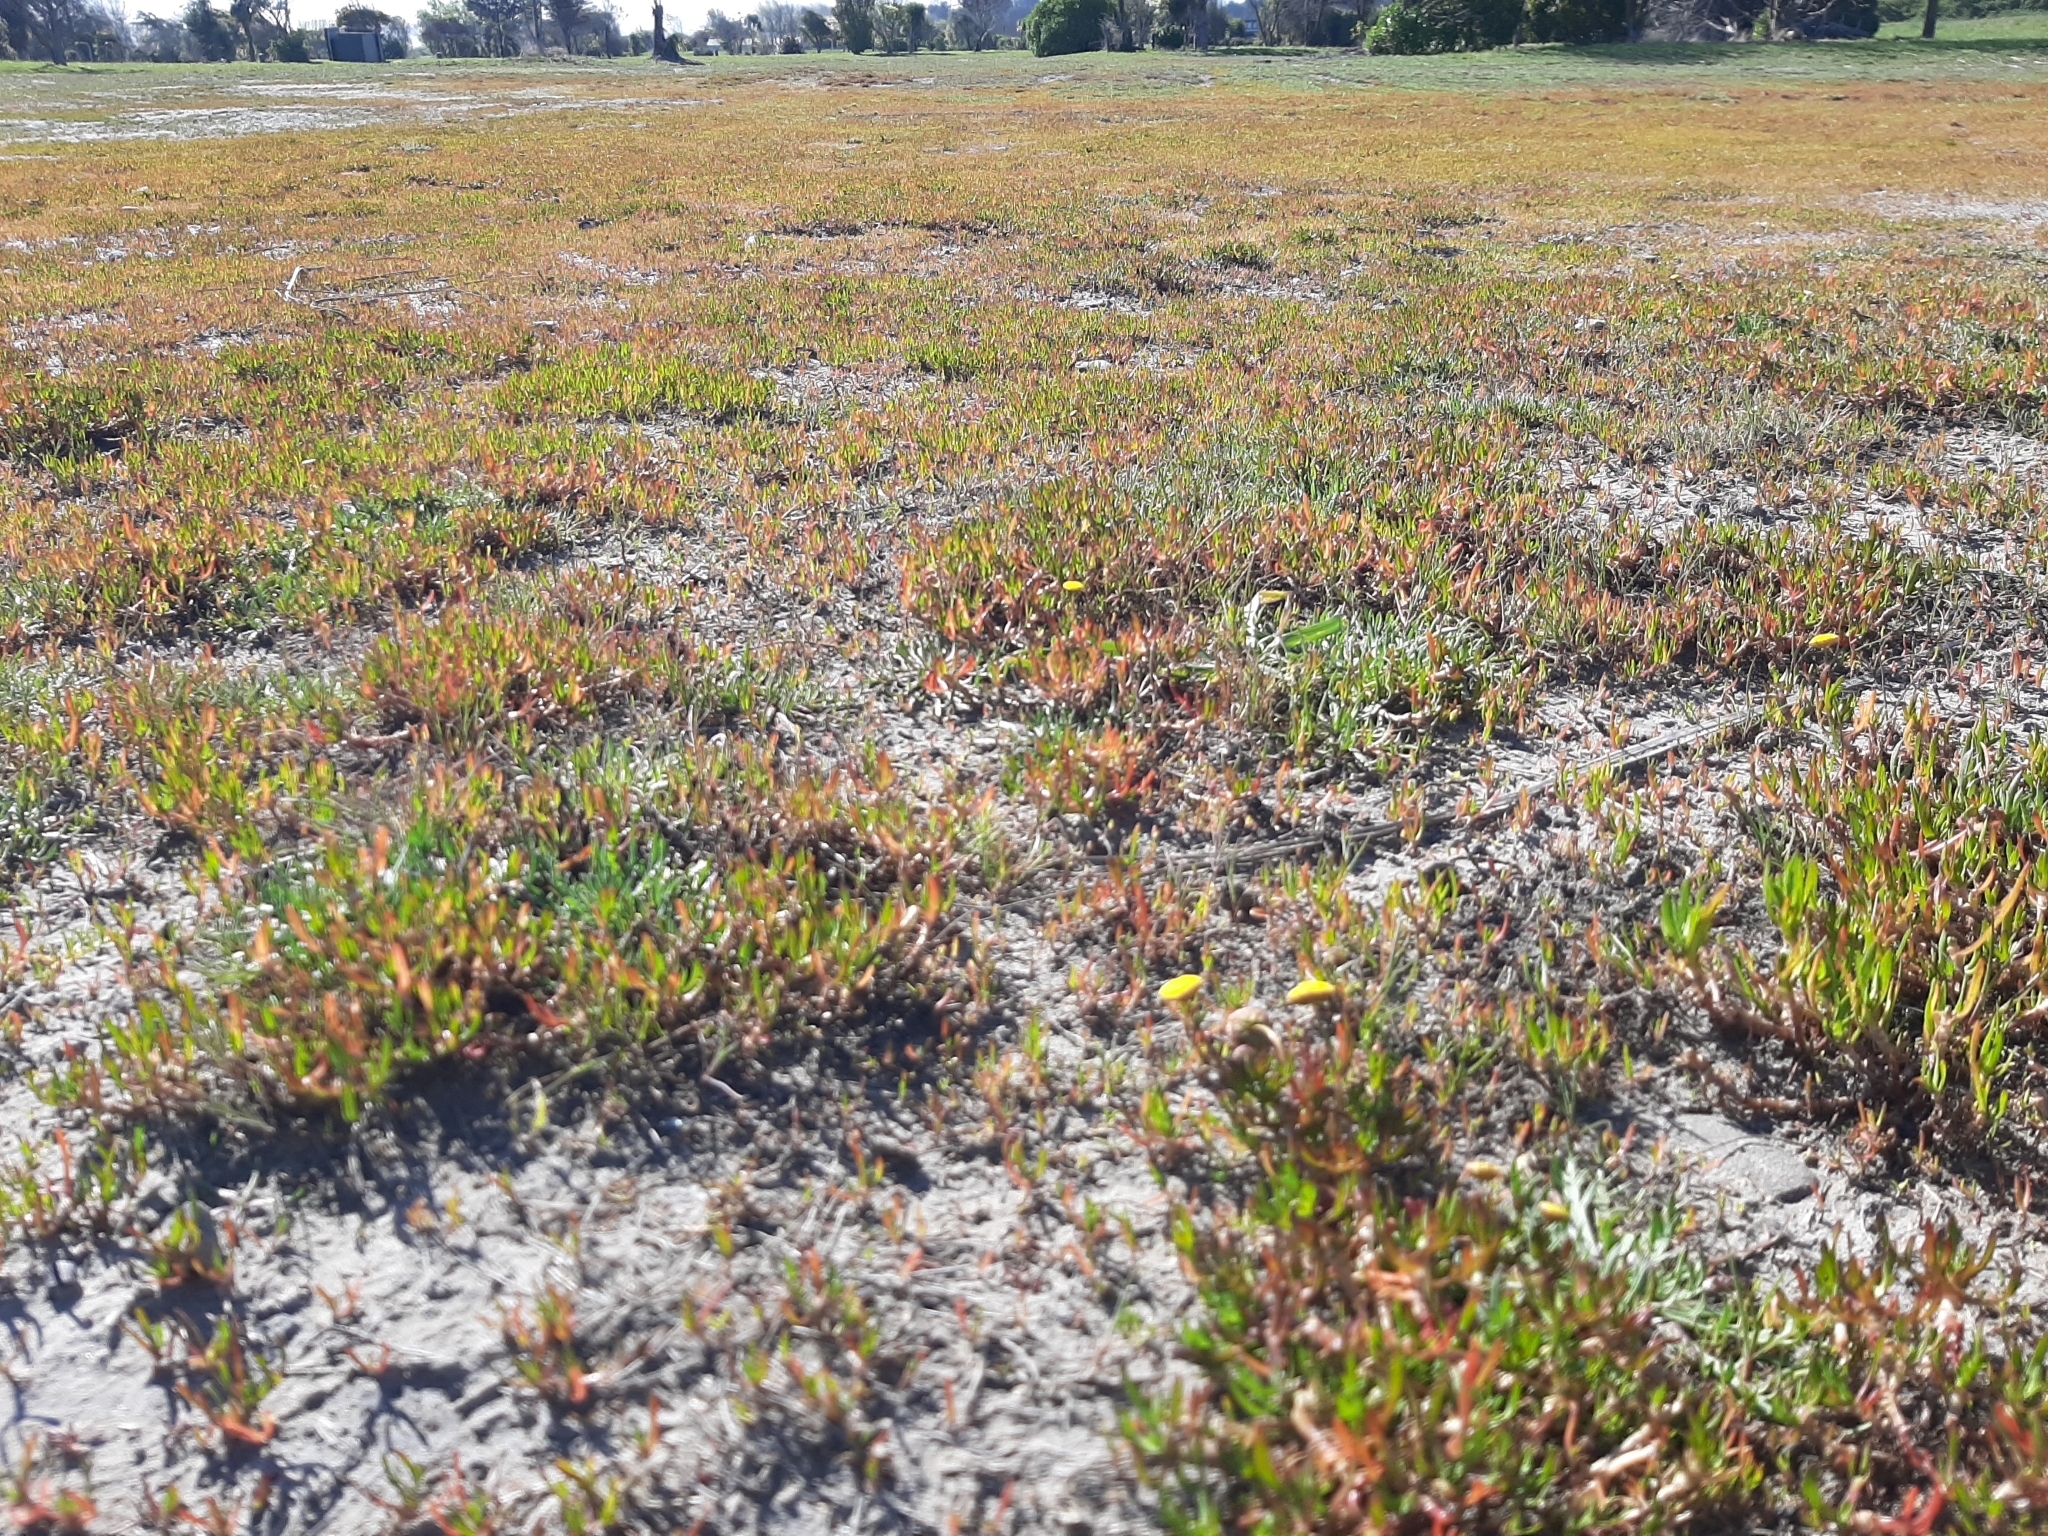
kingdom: Plantae
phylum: Tracheophyta
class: Magnoliopsida
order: Asterales
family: Asteraceae
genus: Cotula
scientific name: Cotula coronopifolia
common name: Buttonweed
